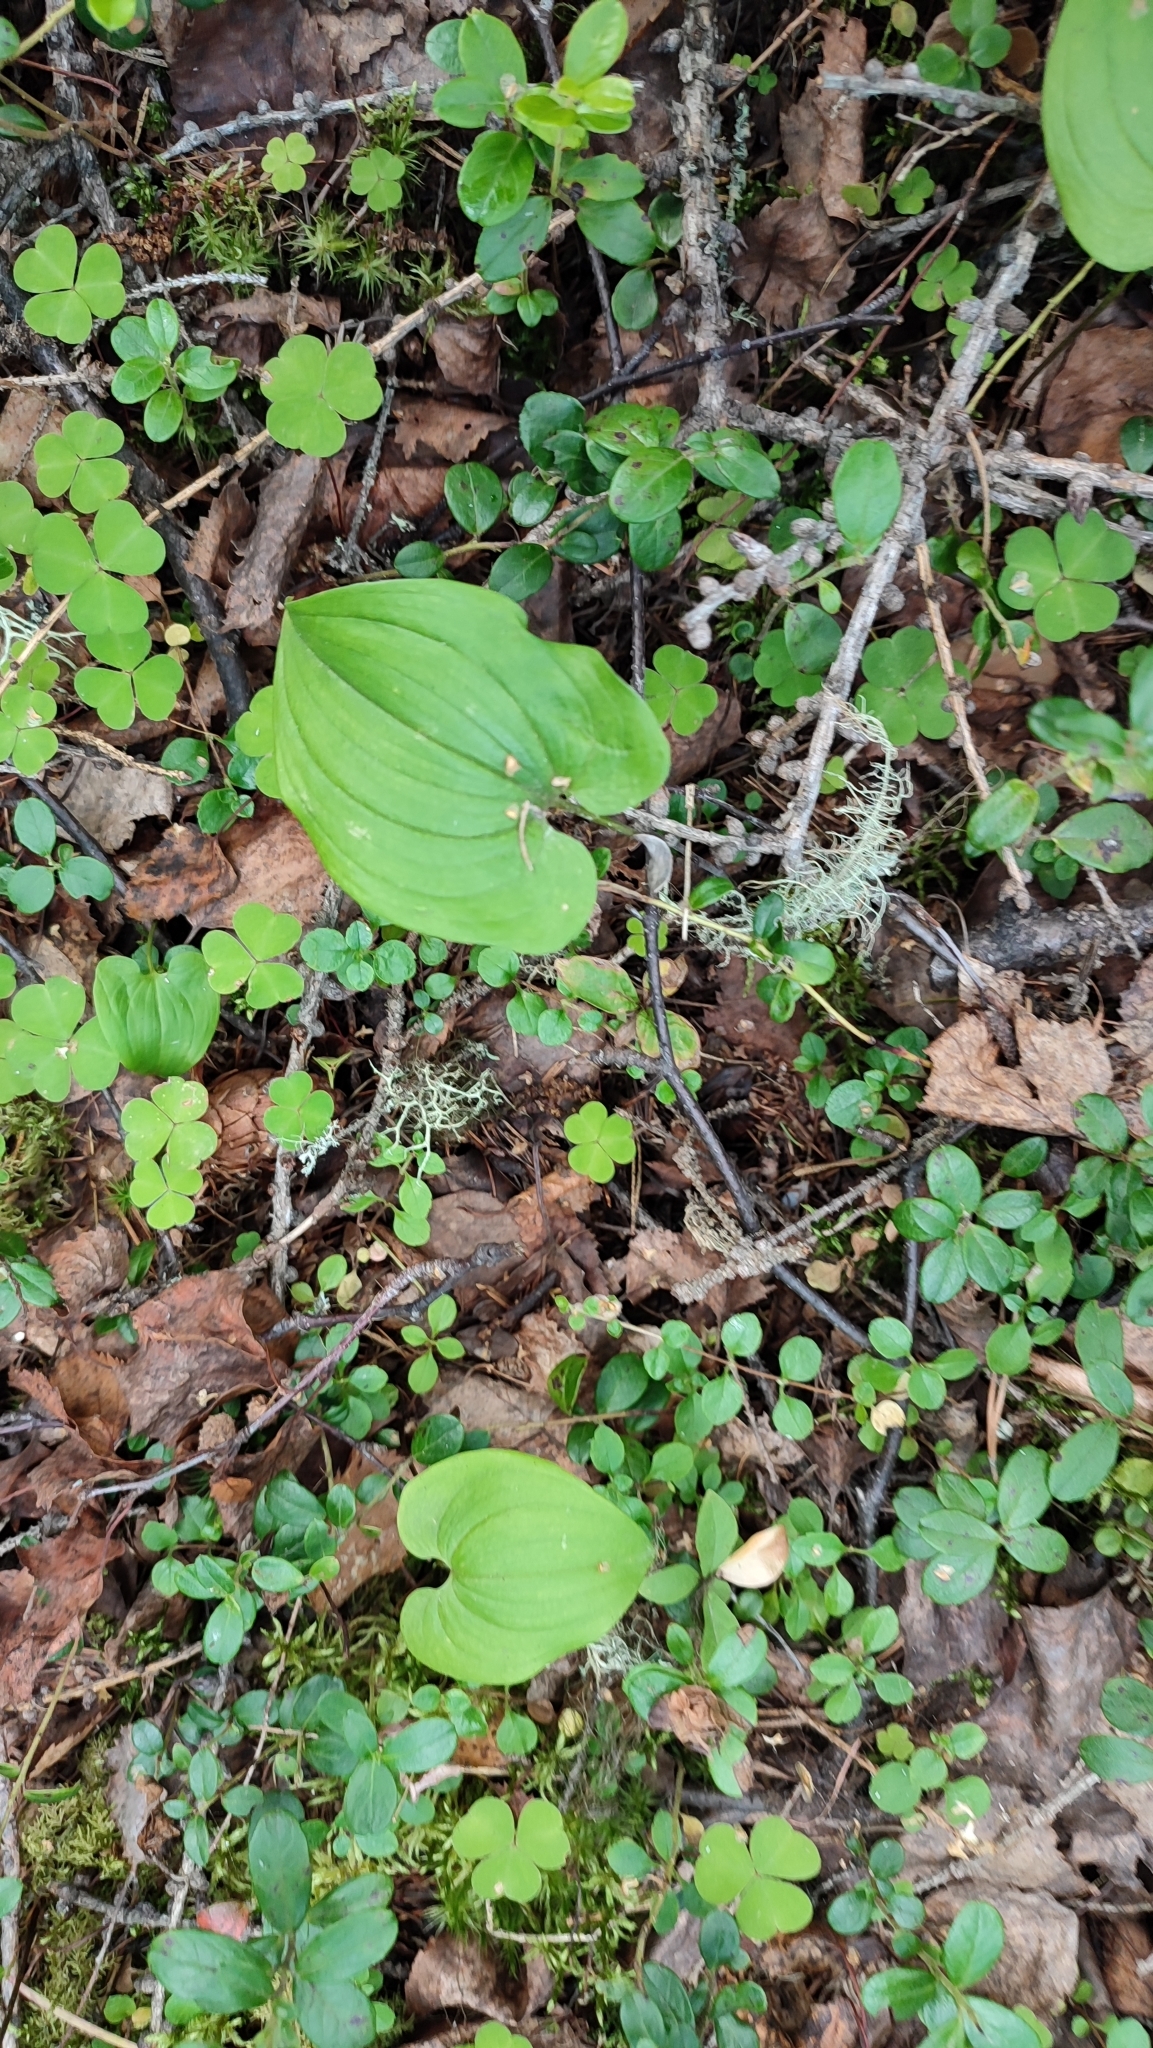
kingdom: Plantae
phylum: Tracheophyta
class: Liliopsida
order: Asparagales
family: Asparagaceae
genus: Maianthemum
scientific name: Maianthemum bifolium
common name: May lily
